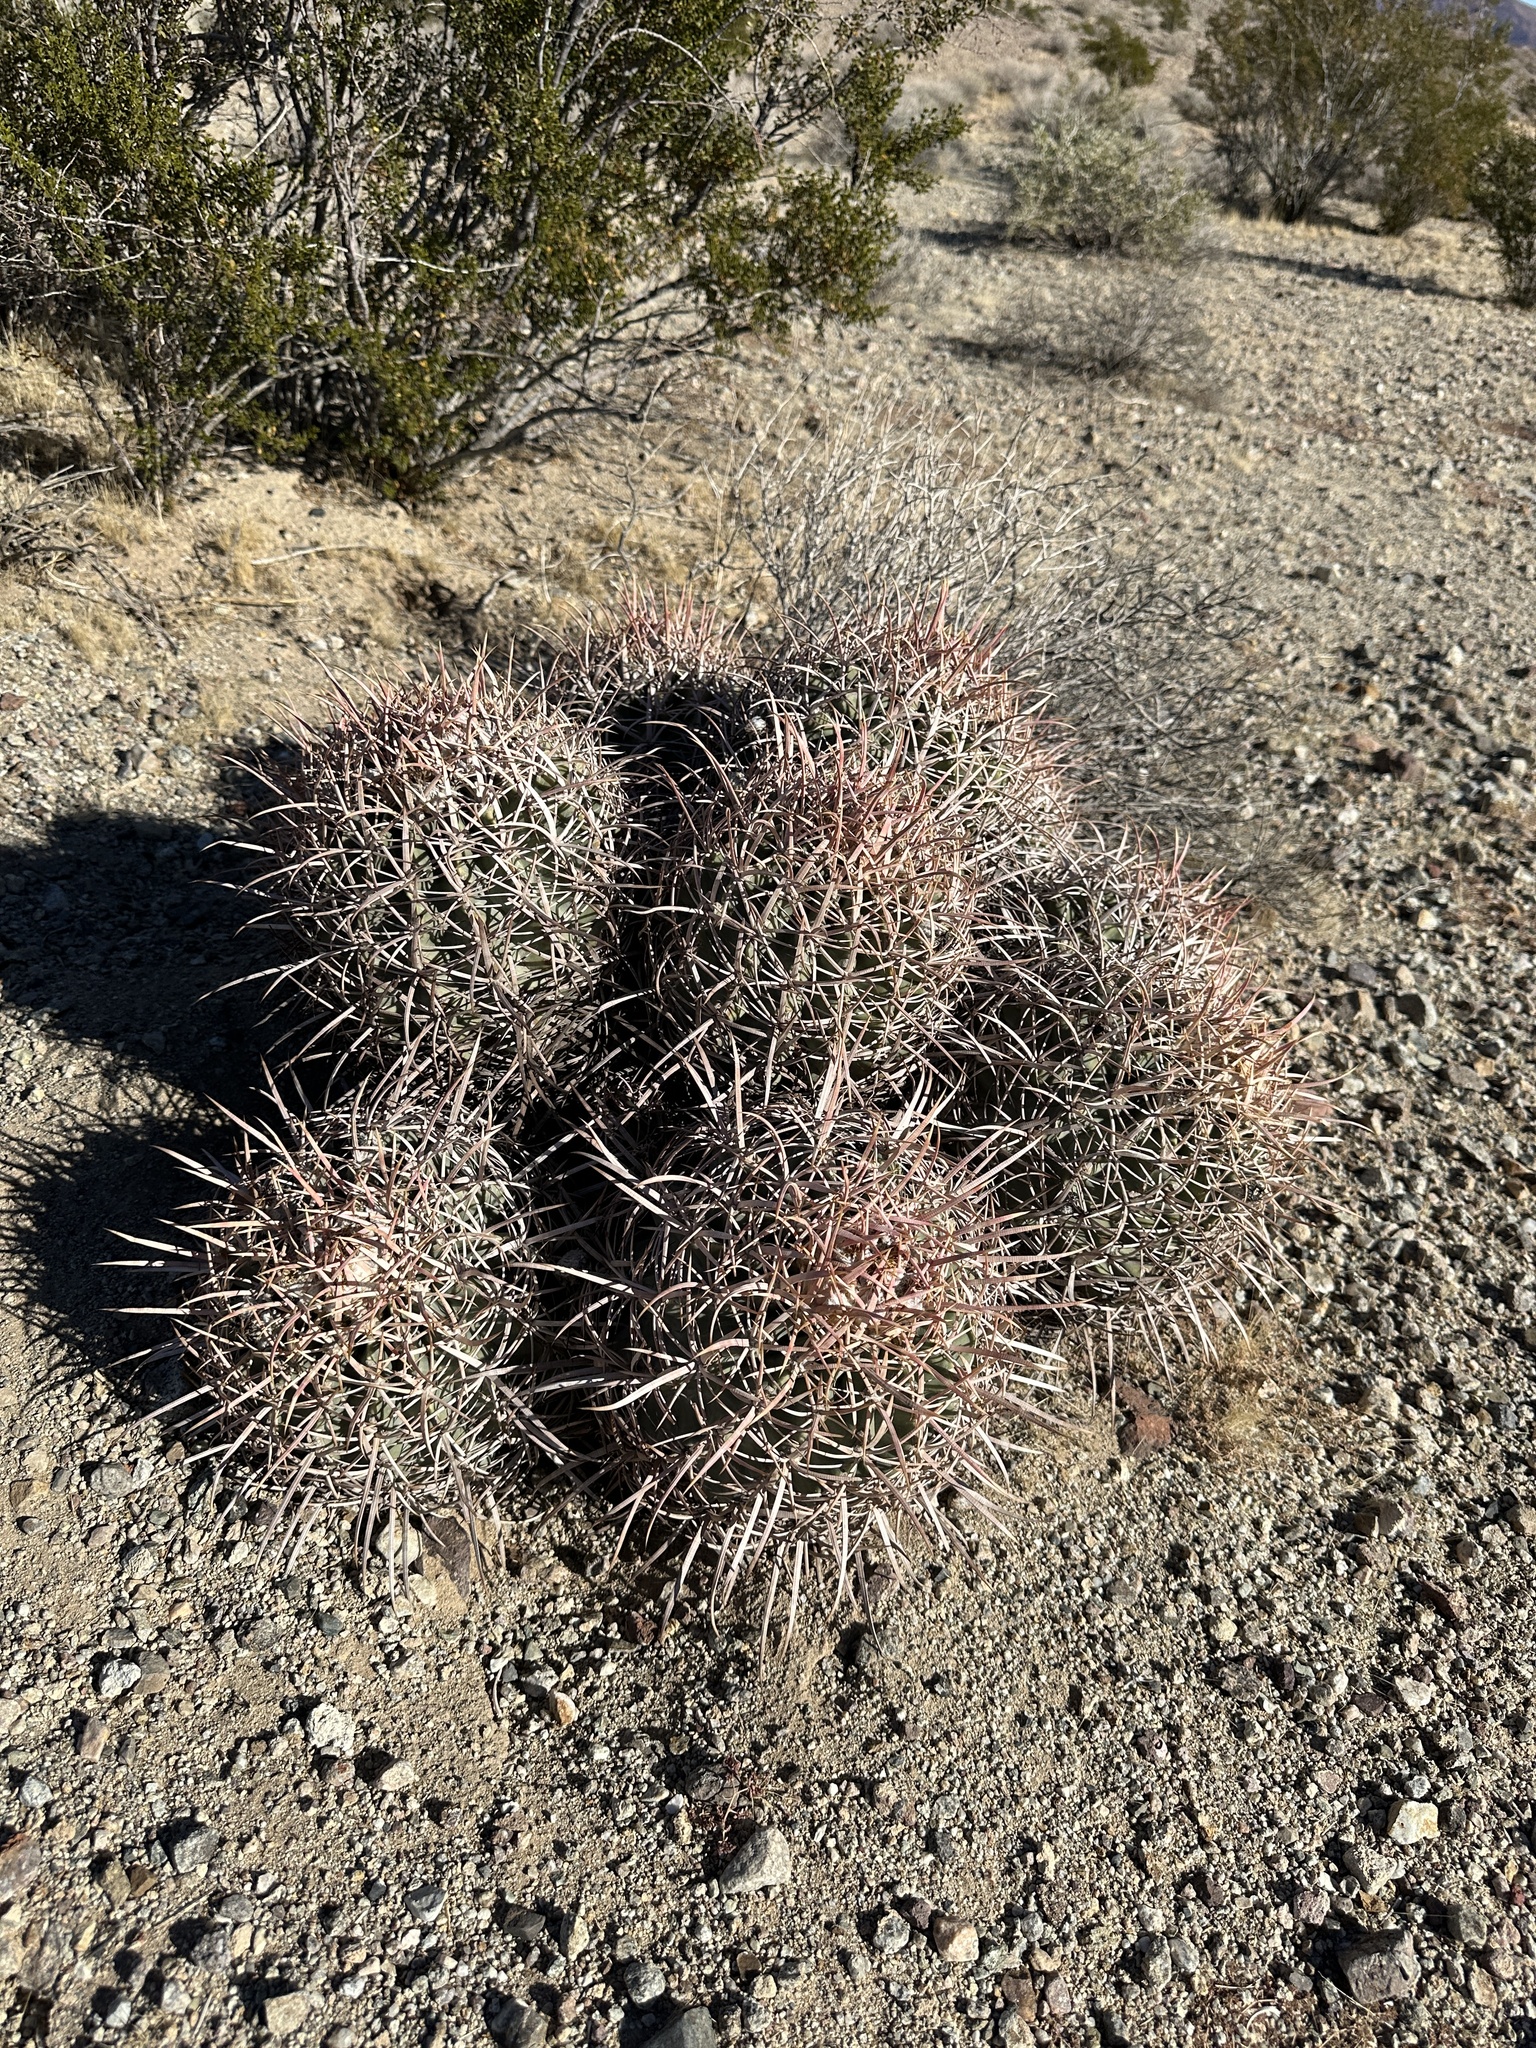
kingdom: Plantae
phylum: Tracheophyta
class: Magnoliopsida
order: Caryophyllales
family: Cactaceae
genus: Echinocactus
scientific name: Echinocactus polycephalus
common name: Cottontop cactus
